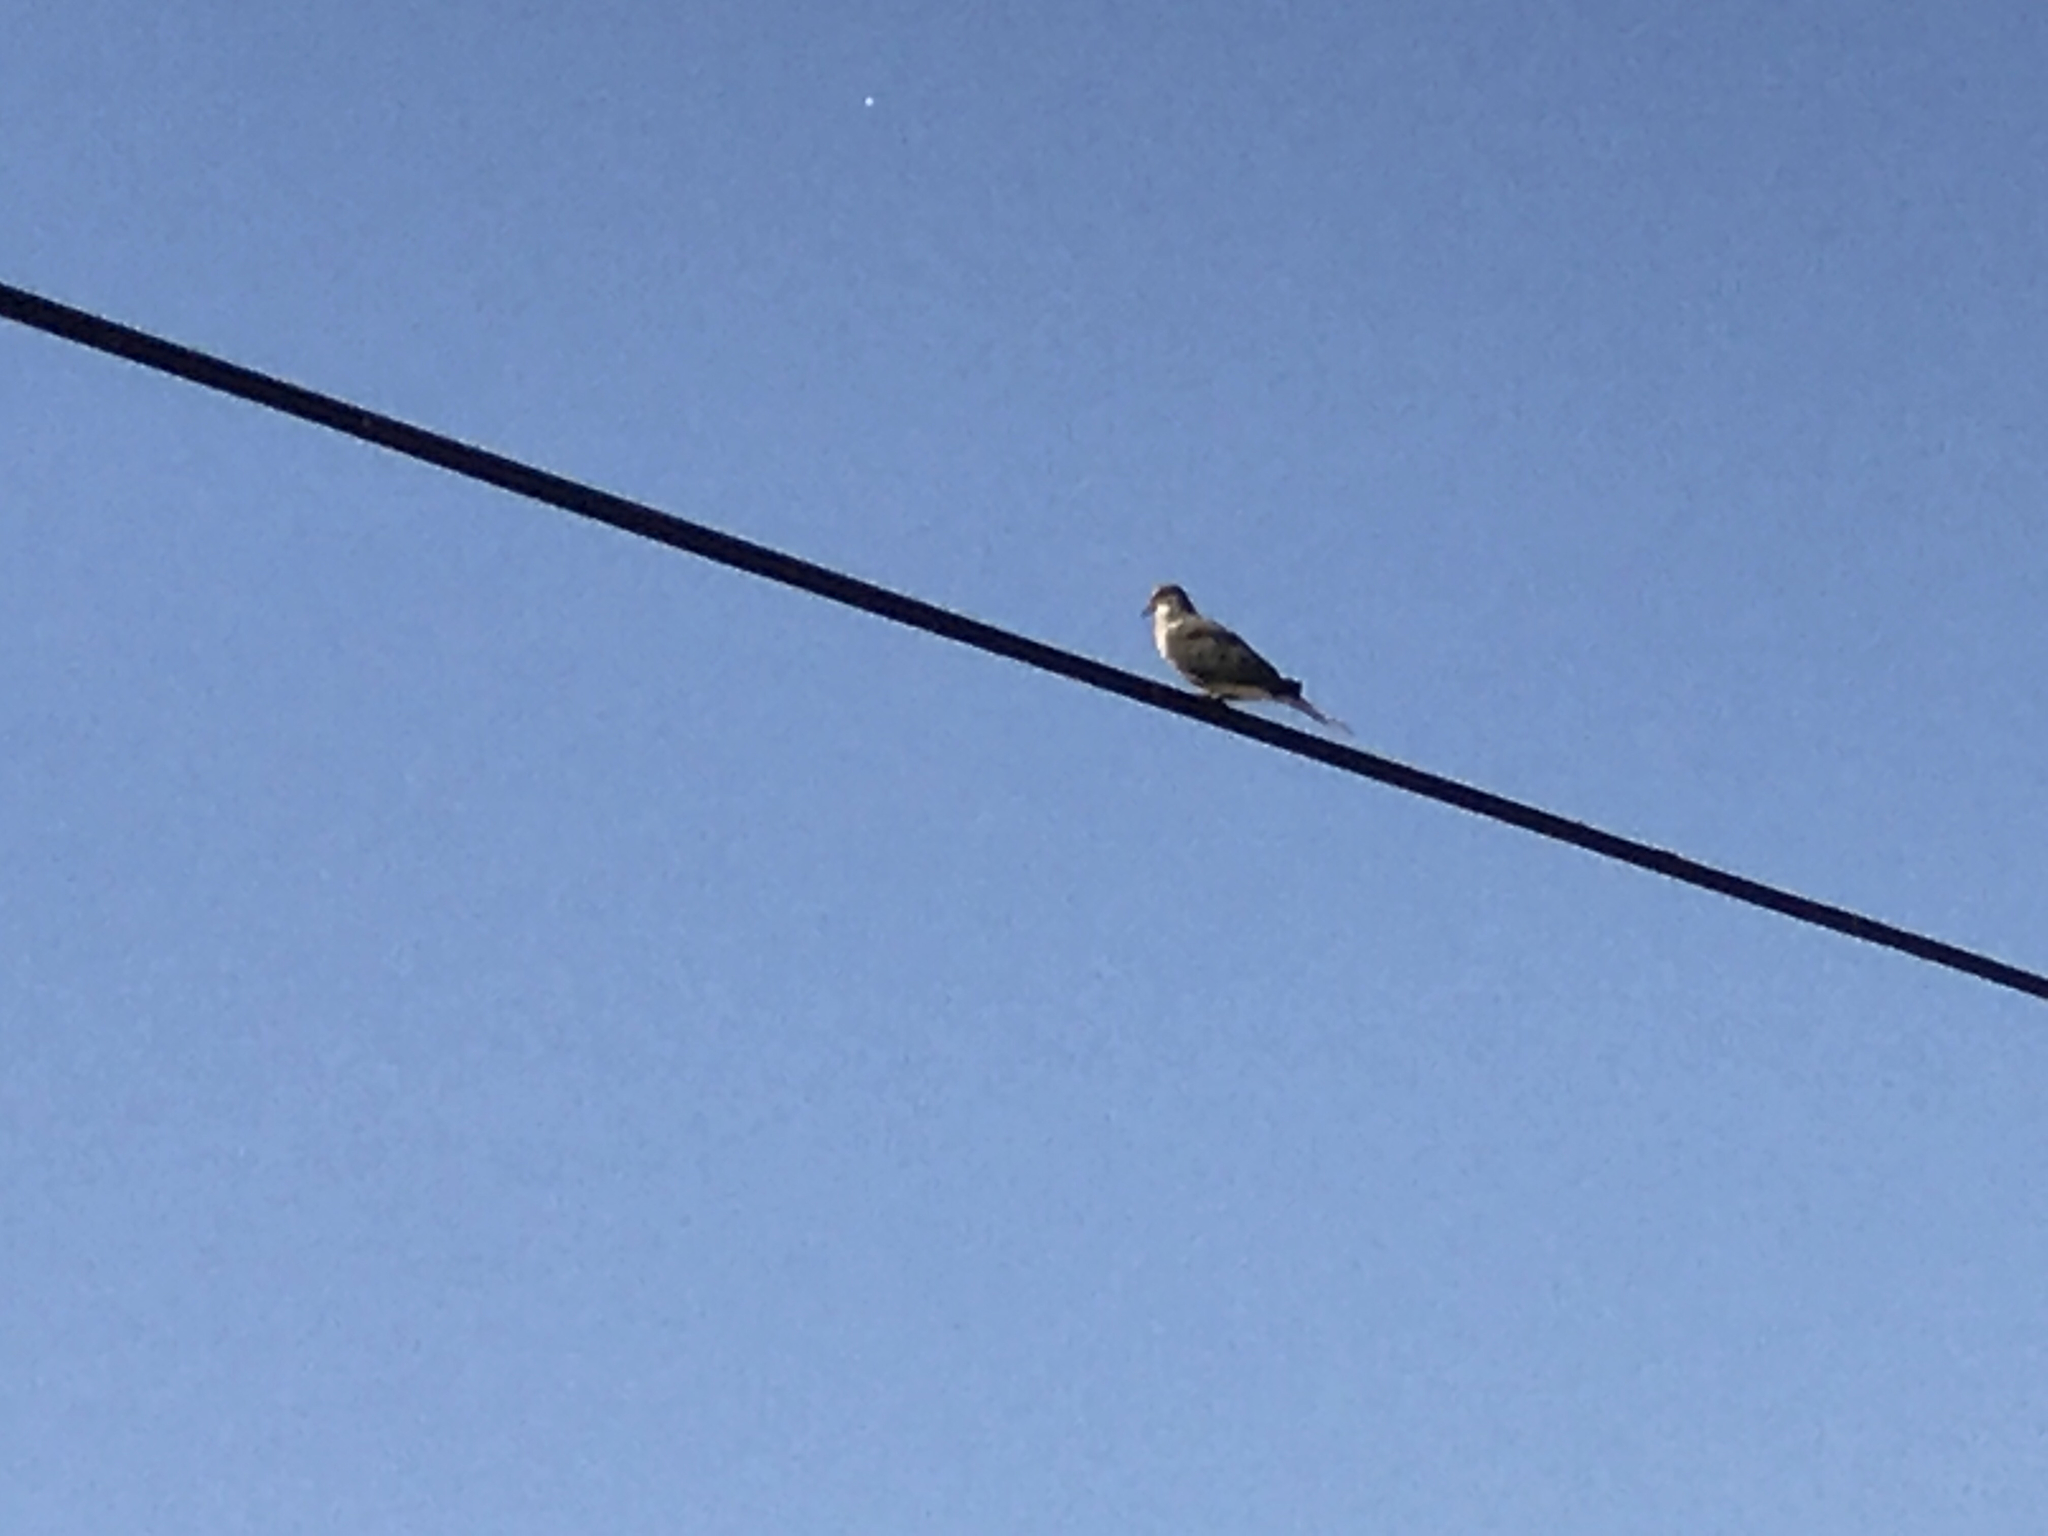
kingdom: Animalia
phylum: Chordata
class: Aves
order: Columbiformes
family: Columbidae
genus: Zenaida
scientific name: Zenaida macroura
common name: Mourning dove
